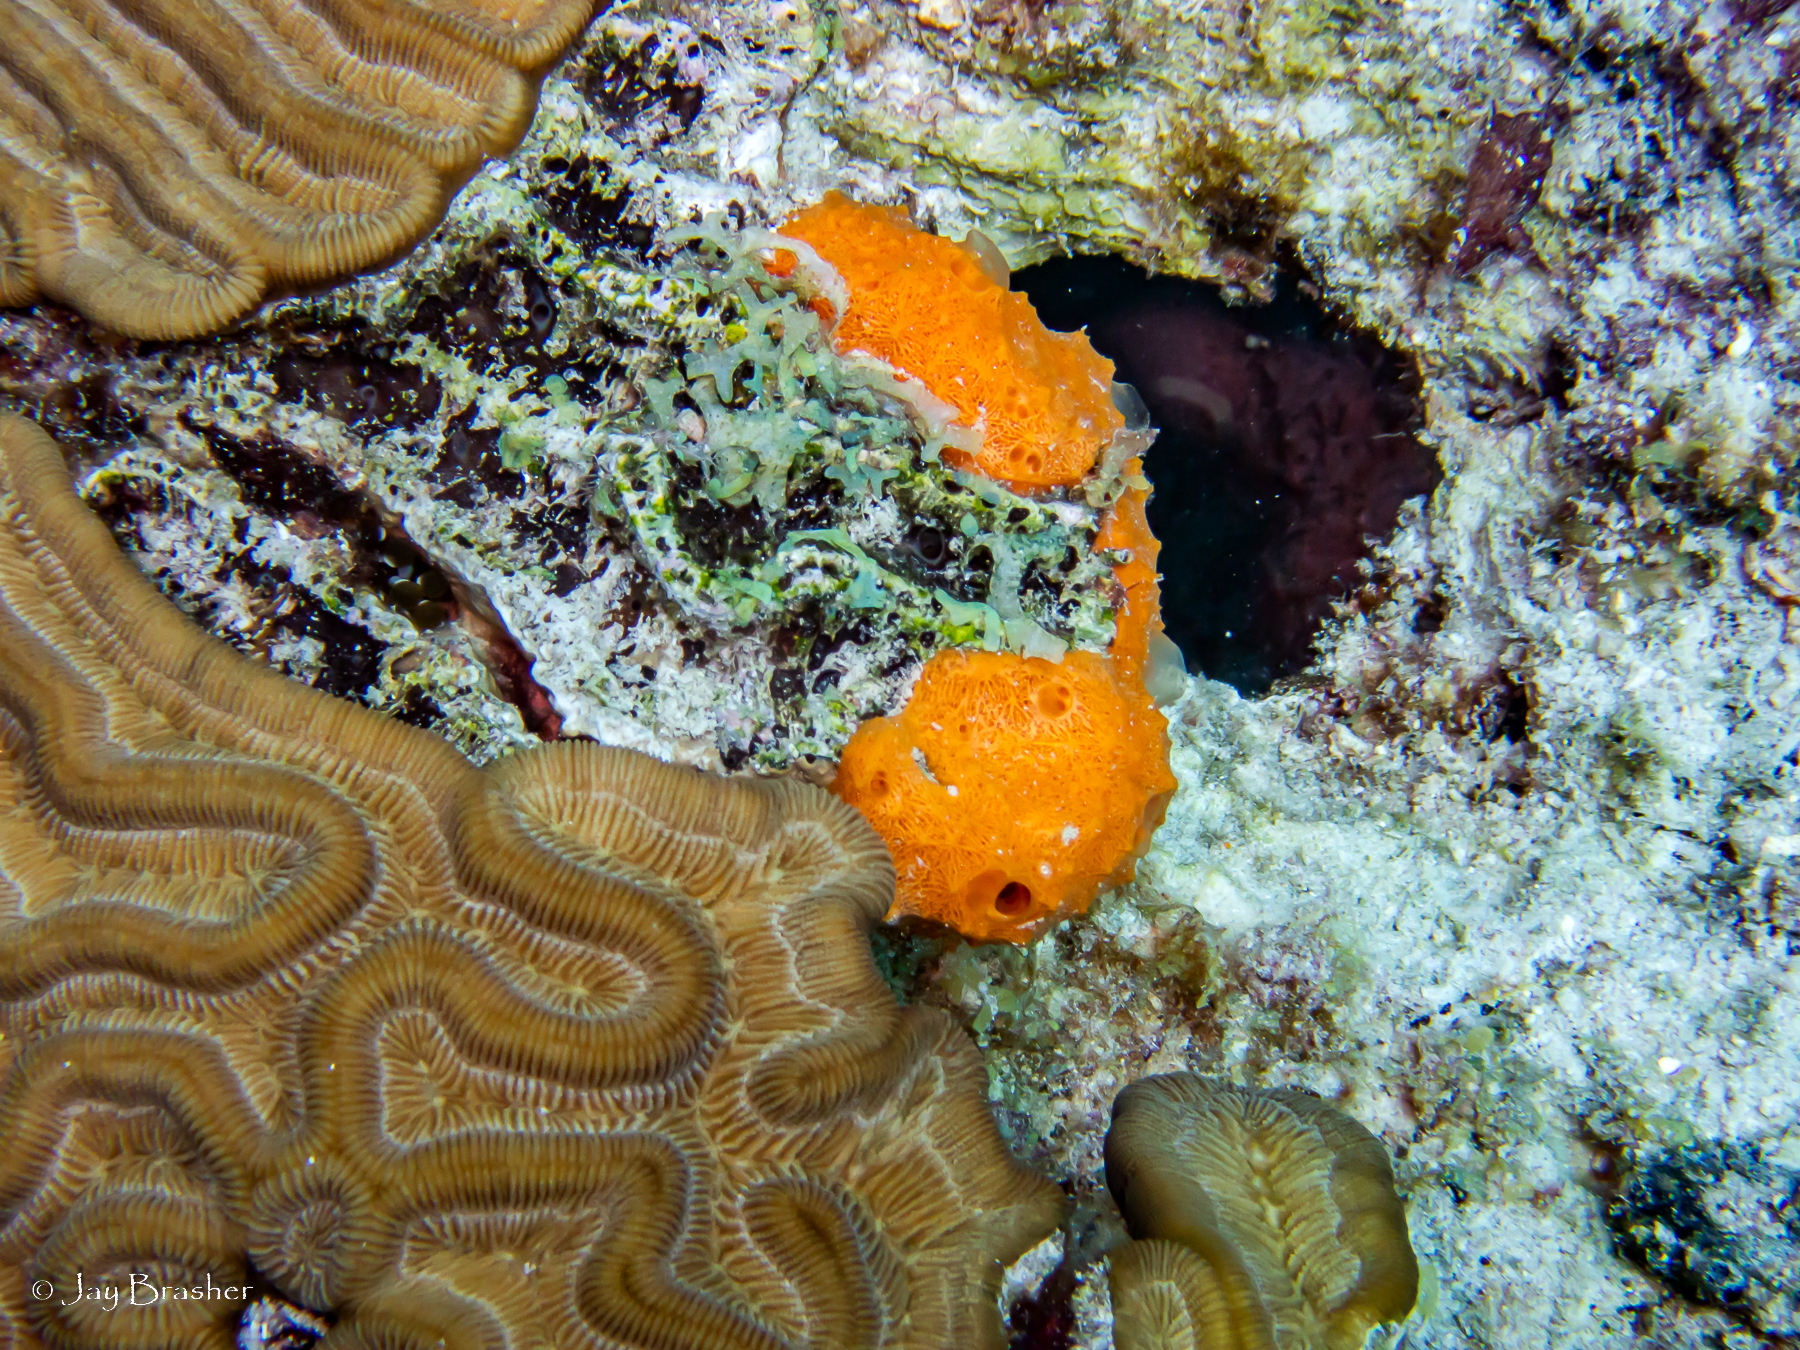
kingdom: Animalia
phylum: Porifera
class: Demospongiae
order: Scopalinida
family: Scopalinidae
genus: Scopalina
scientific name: Scopalina ruetzleri
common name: Orange lumpy encrusting sponge
